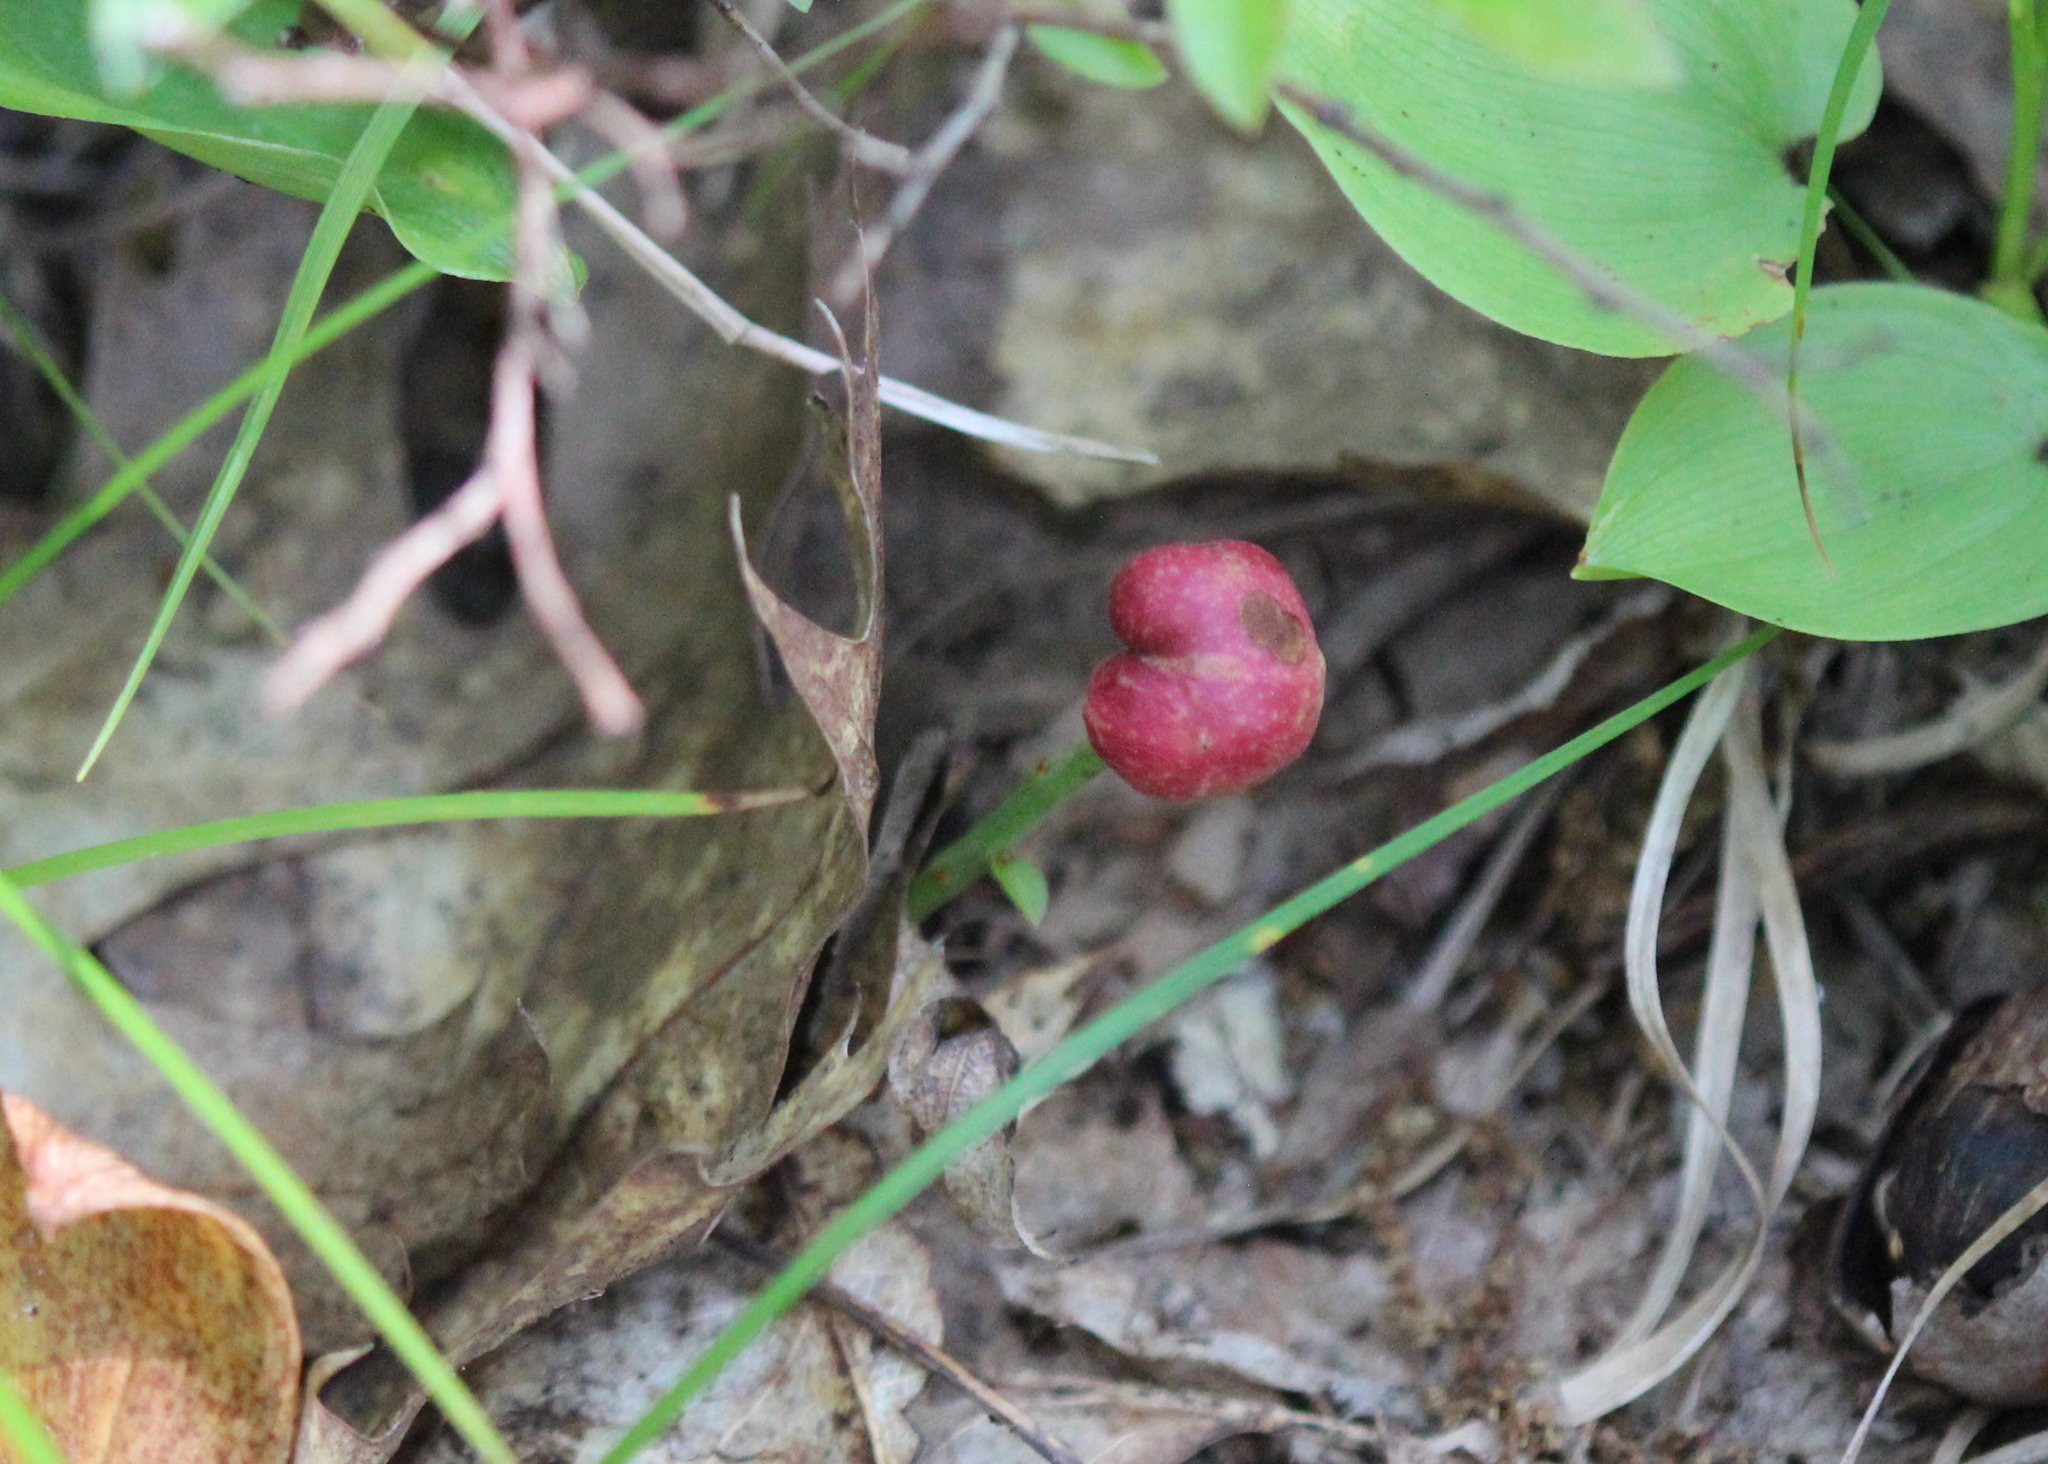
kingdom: Animalia
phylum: Arthropoda
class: Insecta
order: Hymenoptera
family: Pteromalidae
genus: Hemadas
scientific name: Hemadas nubilipennis
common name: Blueberry stem gall wasp
